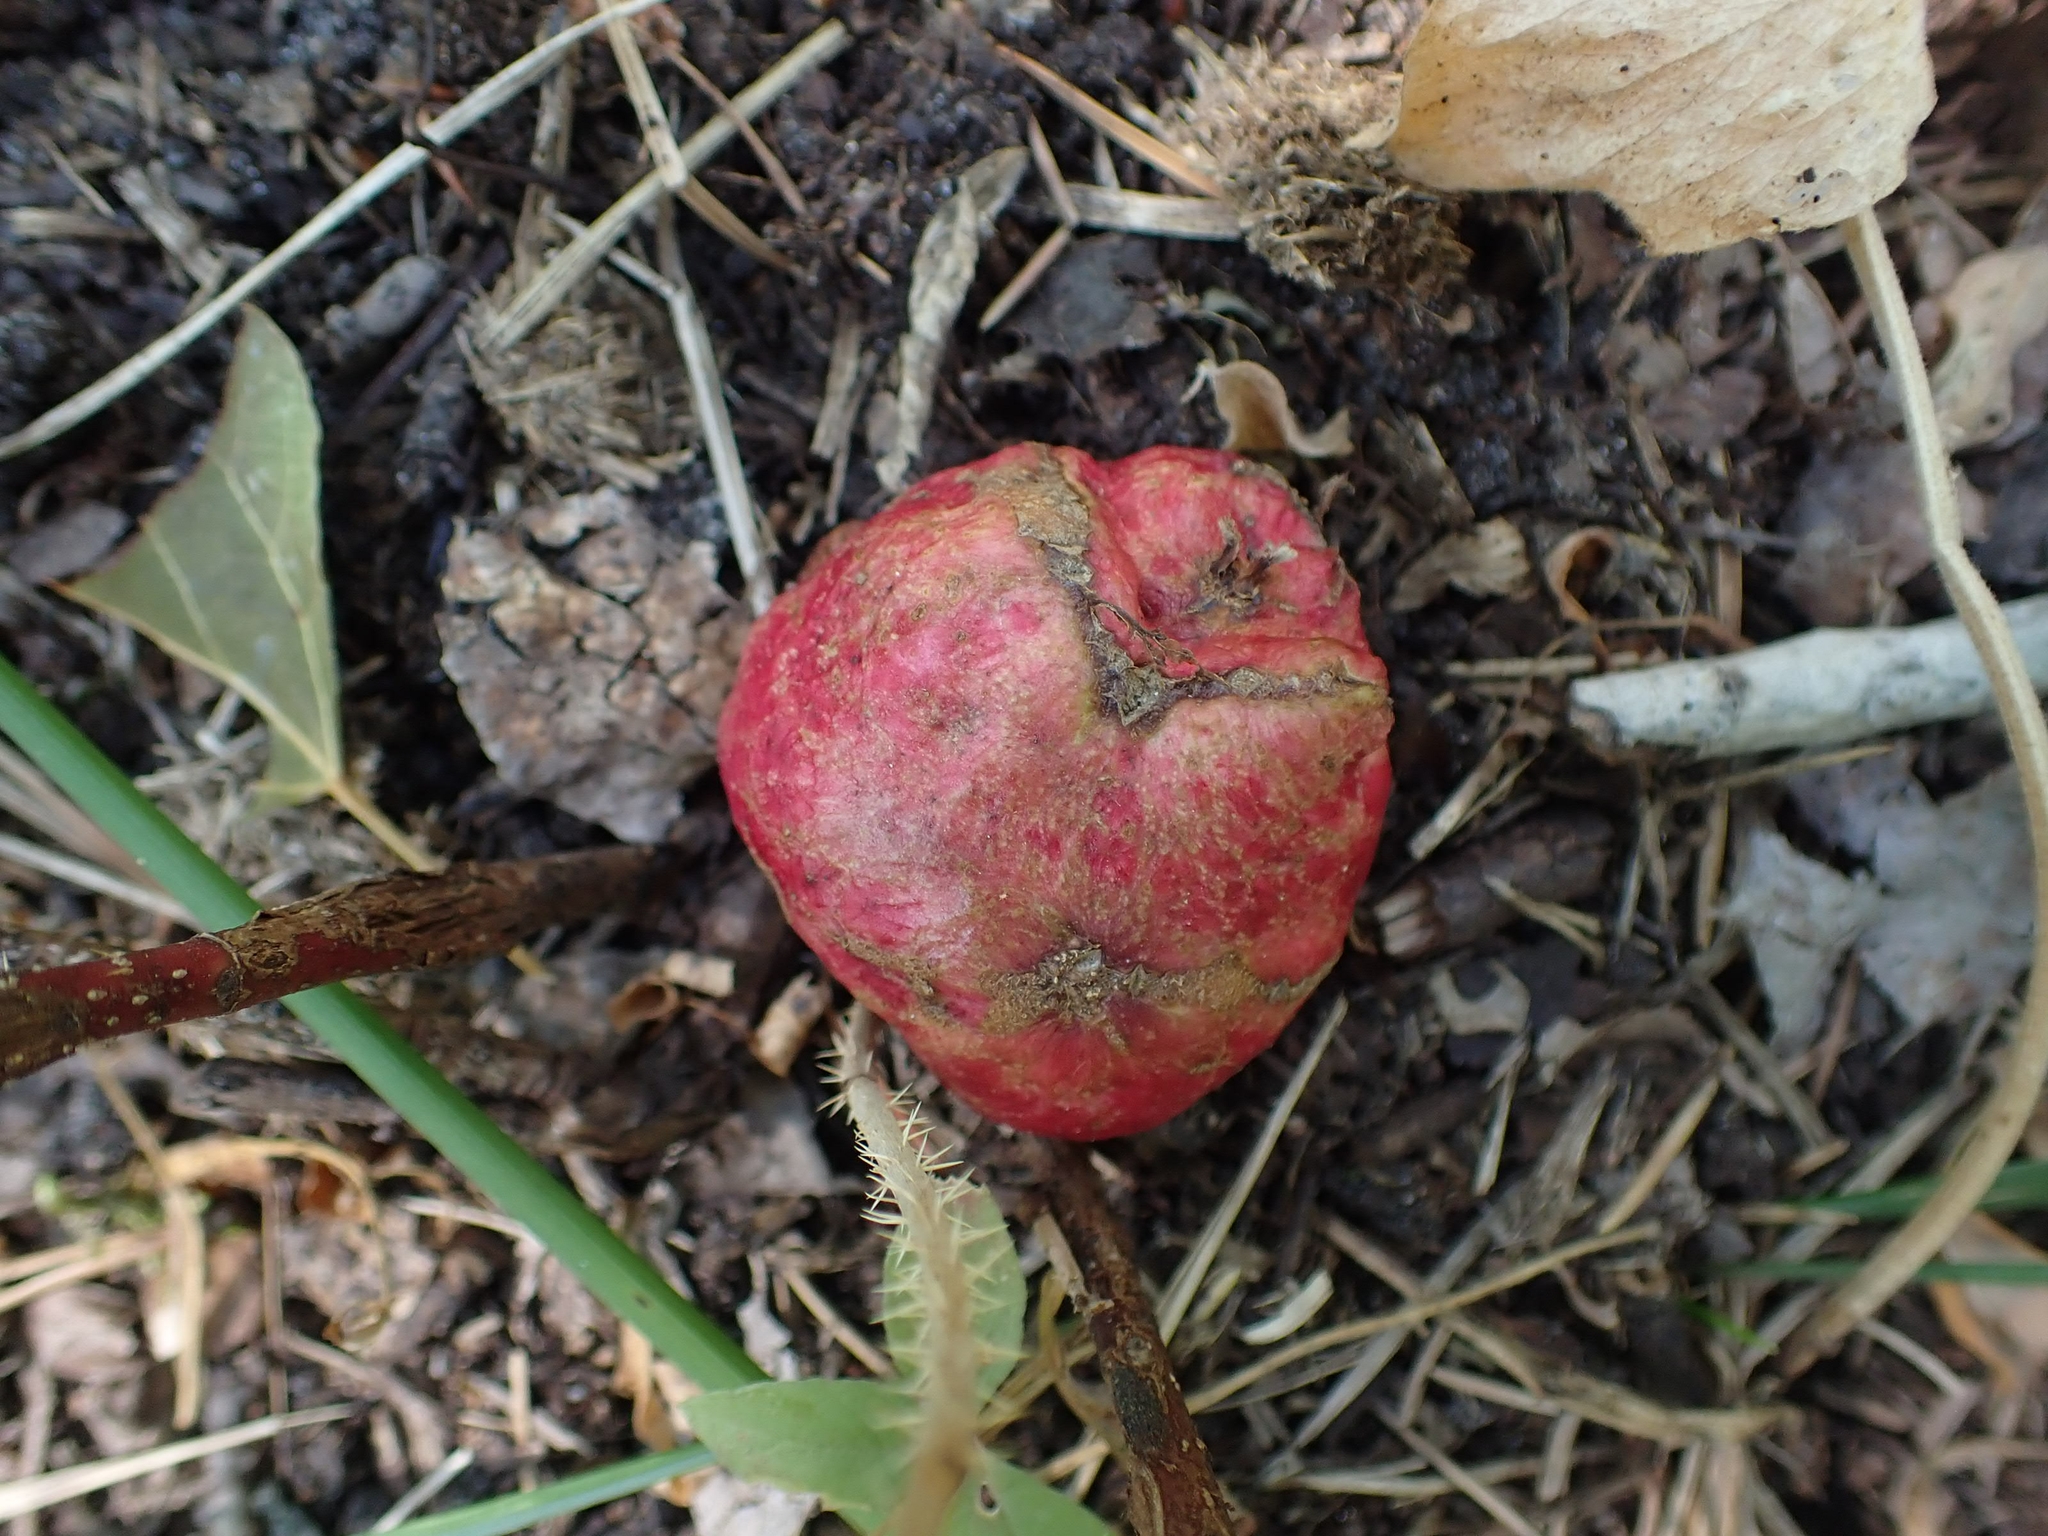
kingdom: Animalia
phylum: Arthropoda
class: Insecta
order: Hymenoptera
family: Cynipidae
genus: Diplolepis
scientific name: Diplolepis radicum
